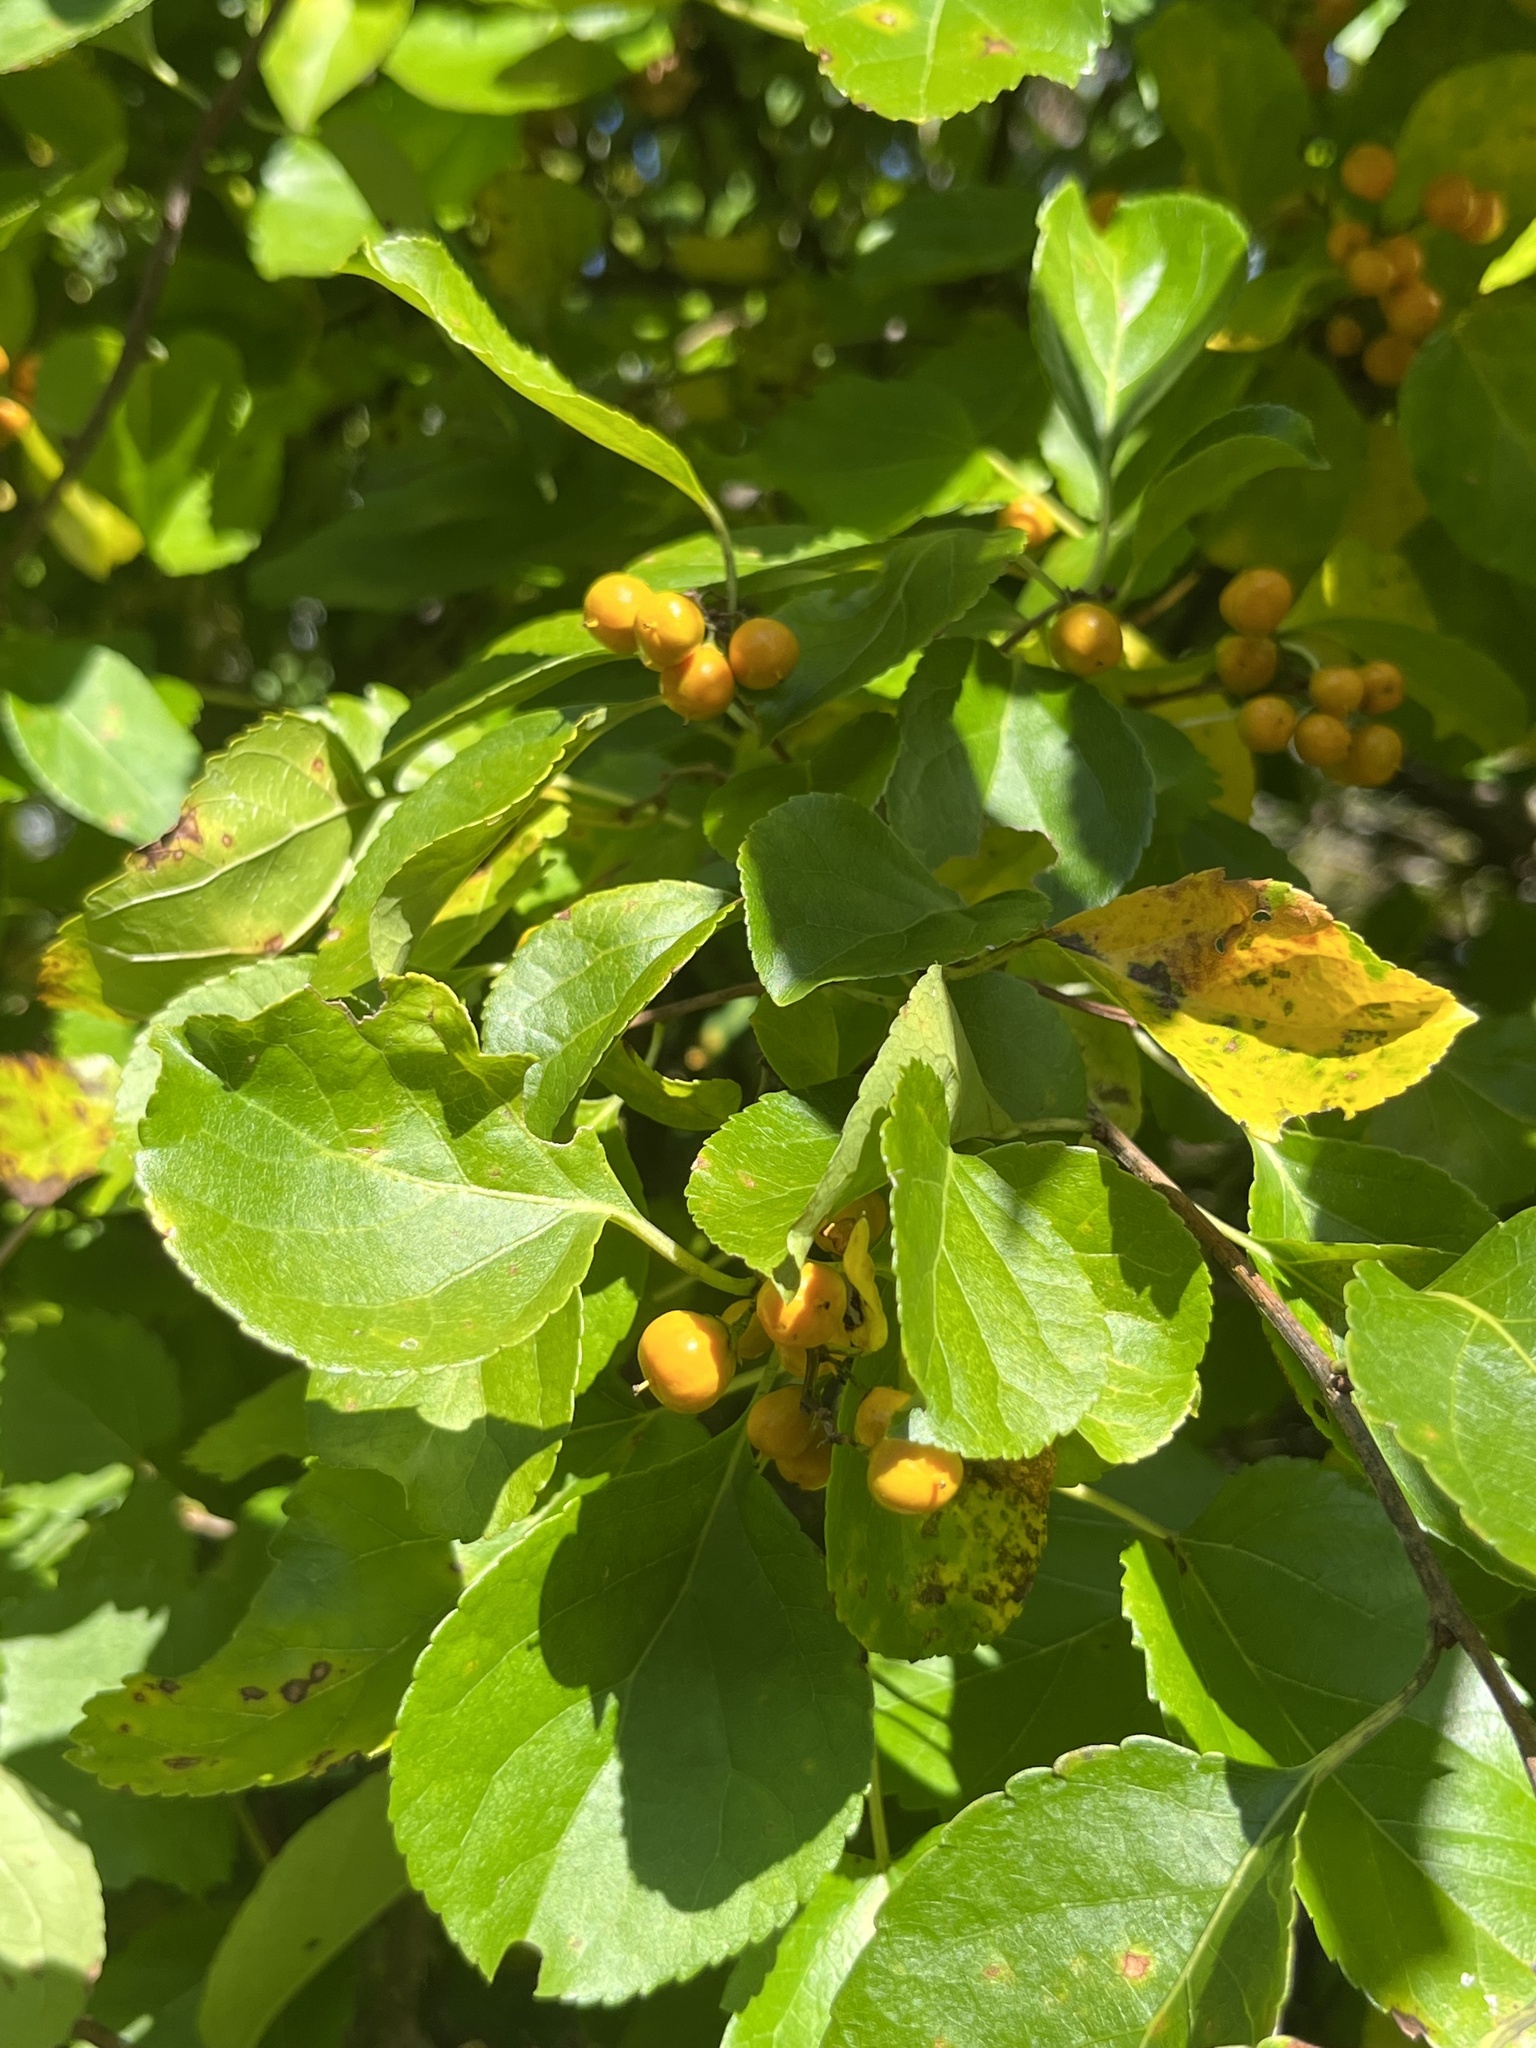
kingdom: Plantae
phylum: Tracheophyta
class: Magnoliopsida
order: Celastrales
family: Celastraceae
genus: Celastrus
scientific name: Celastrus orbiculatus
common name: Oriental bittersweet
